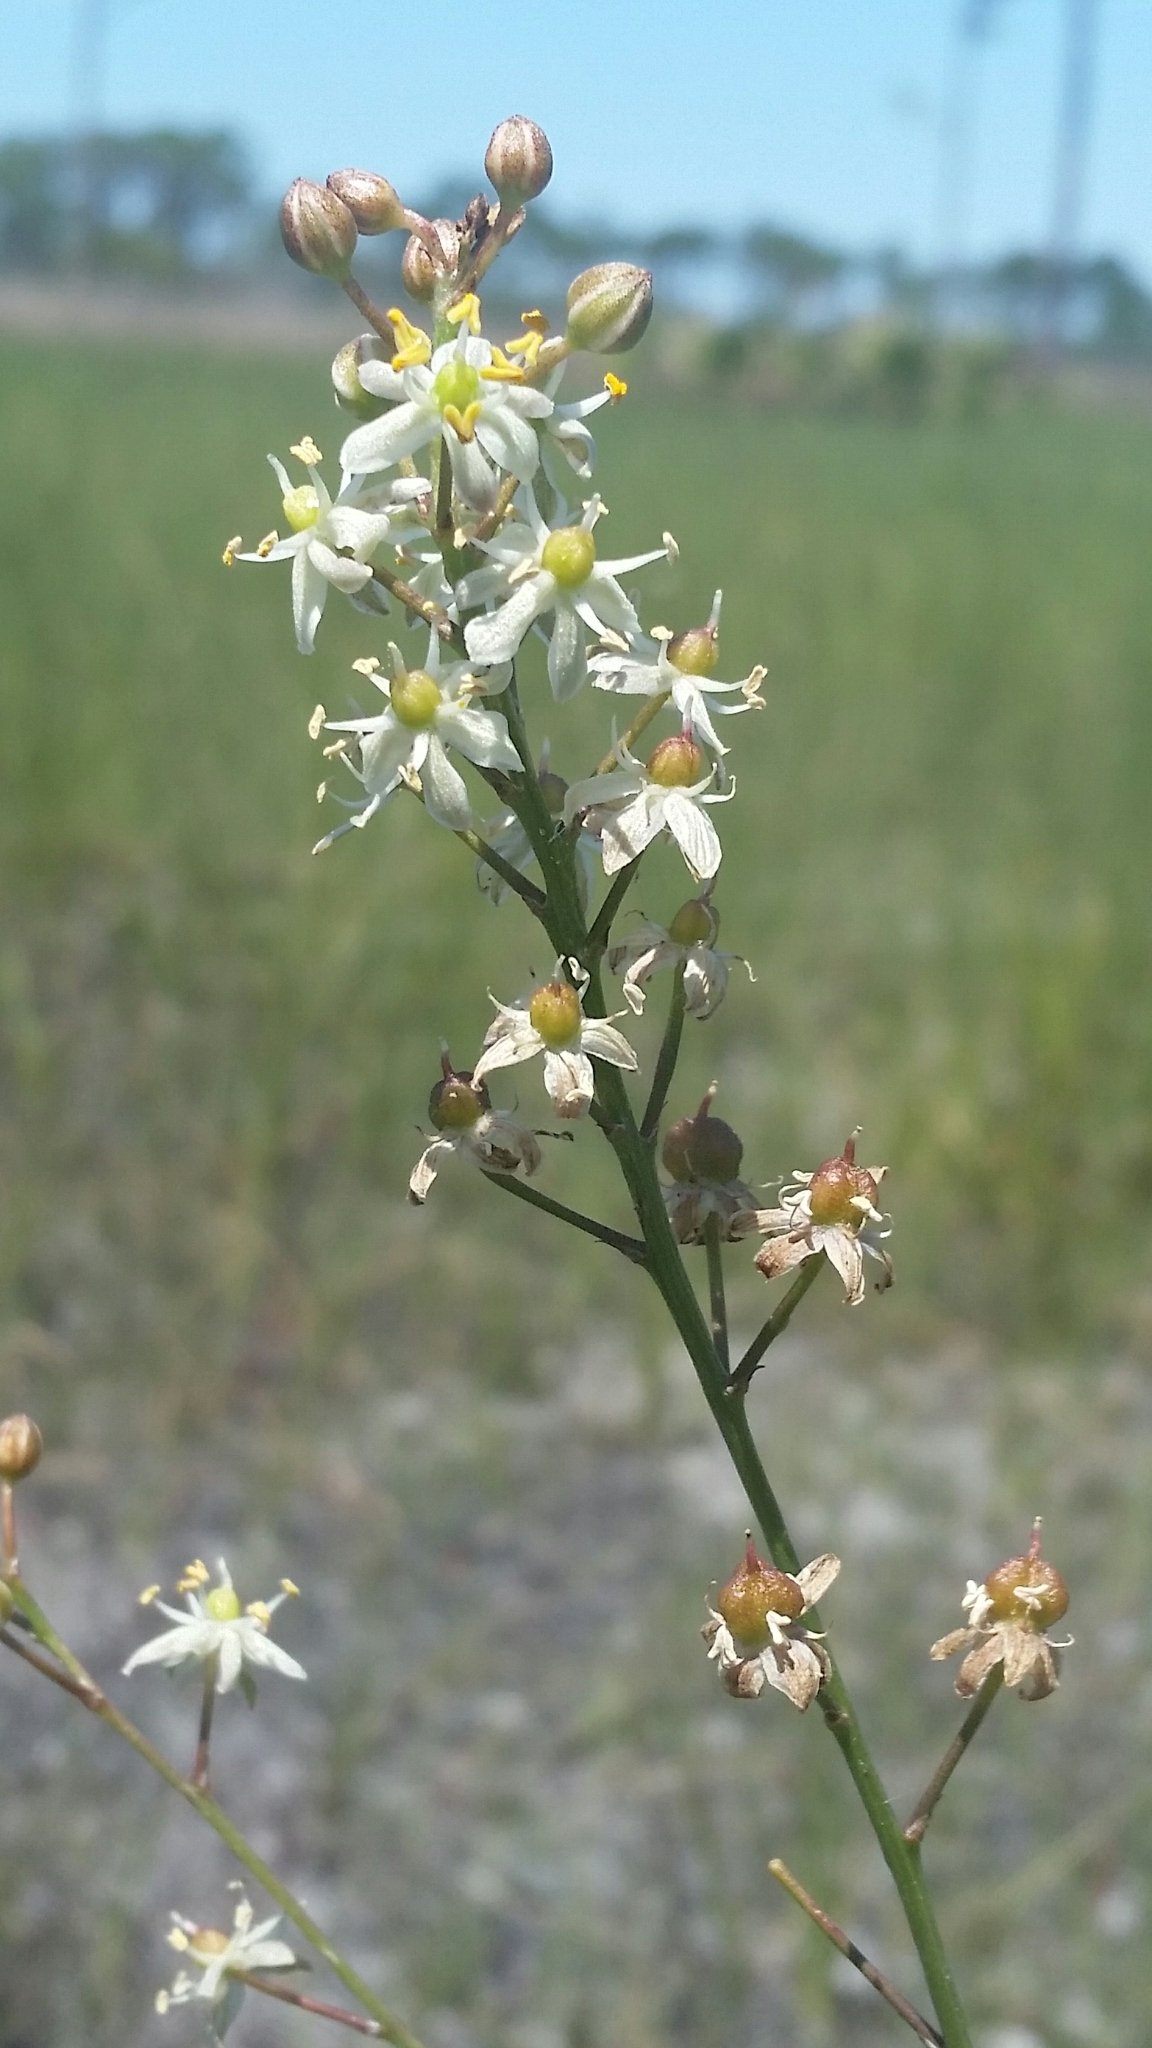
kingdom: Plantae
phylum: Tracheophyta
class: Liliopsida
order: Asparagales
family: Asparagaceae
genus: Schoenolirion
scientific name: Schoenolirion albiflorum
